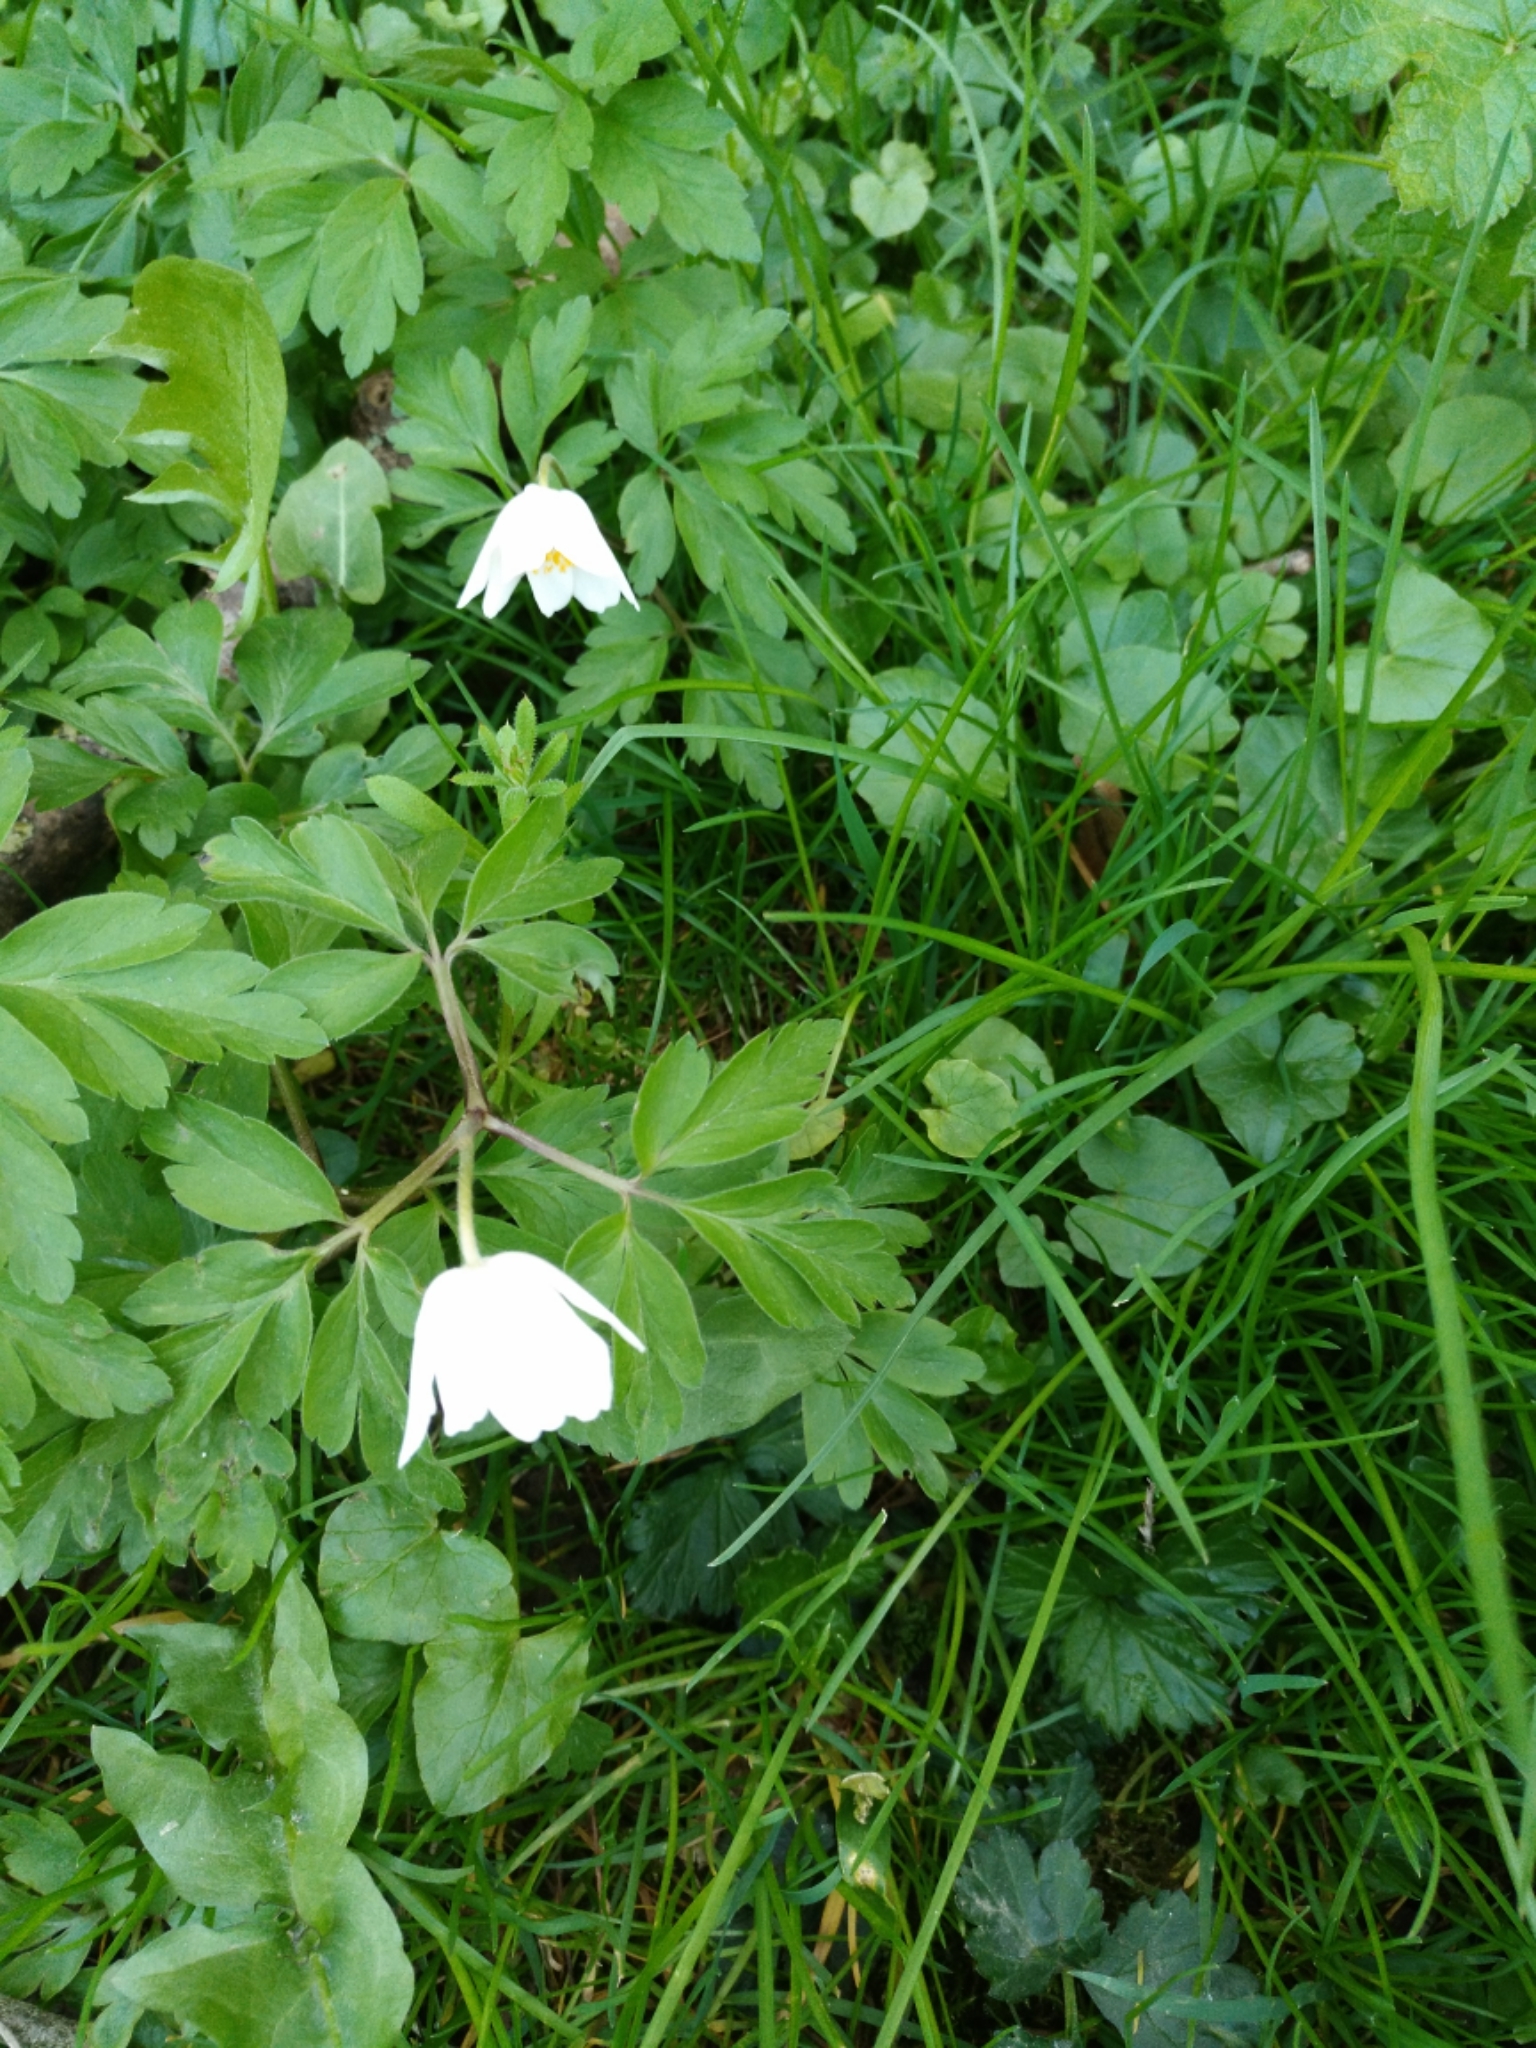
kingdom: Plantae
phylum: Tracheophyta
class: Magnoliopsida
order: Ranunculales
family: Ranunculaceae
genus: Anemone
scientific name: Anemone nemorosa
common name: Wood anemone
